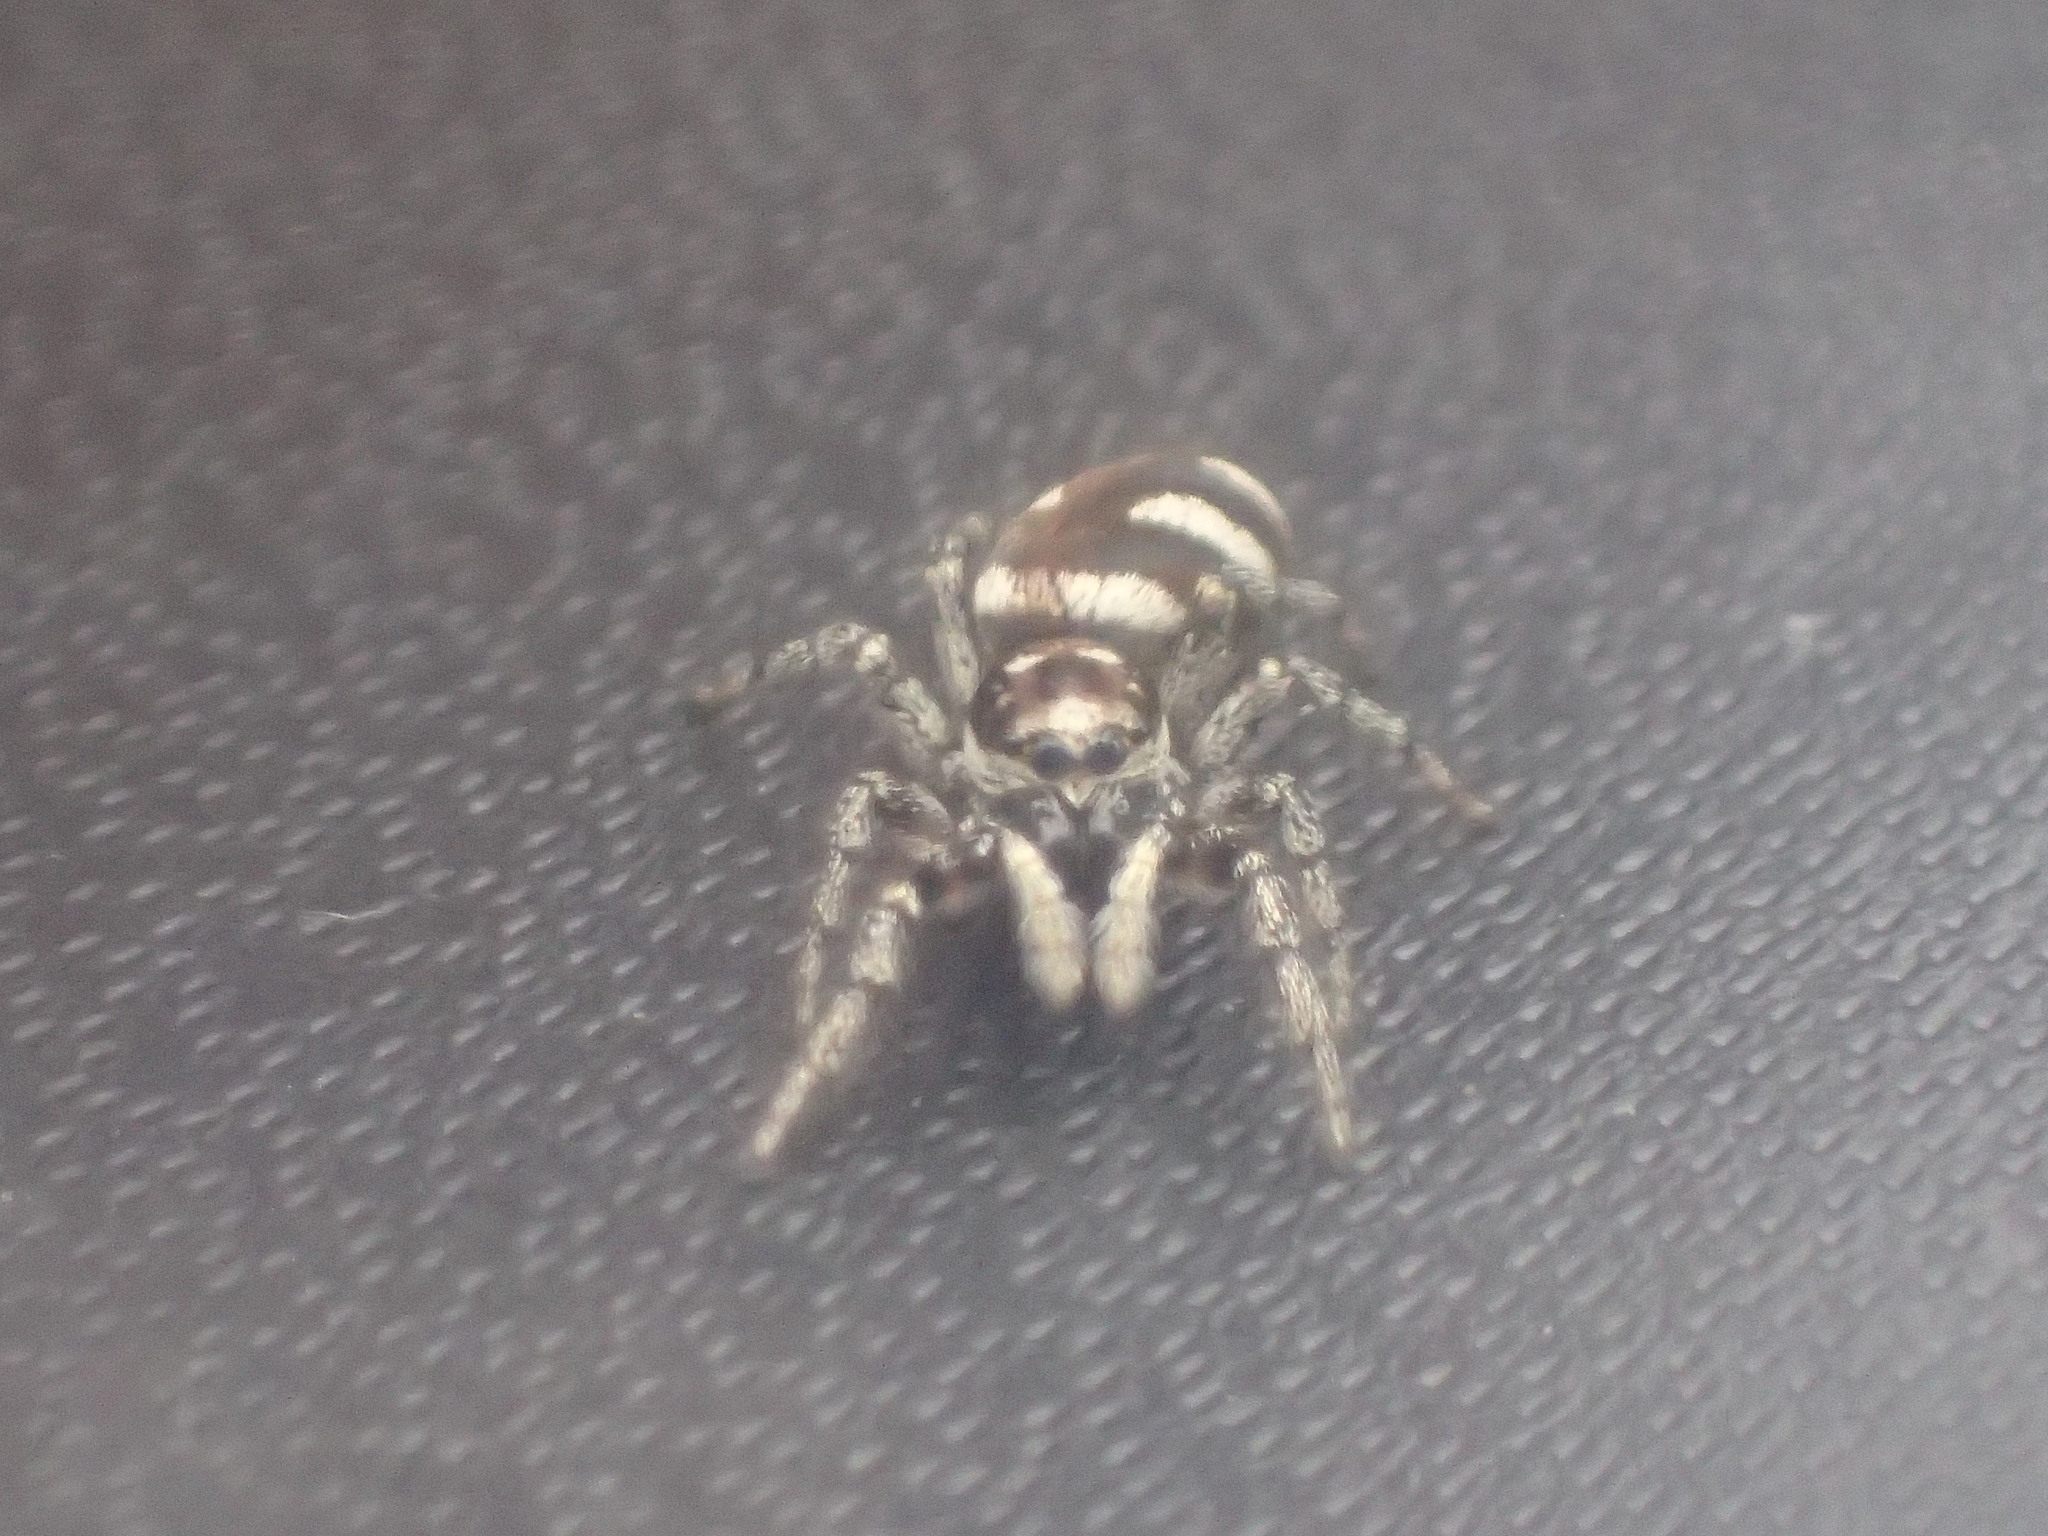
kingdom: Animalia
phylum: Arthropoda
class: Arachnida
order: Araneae
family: Salticidae
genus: Salticus
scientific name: Salticus scenicus
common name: Zebra jumper
